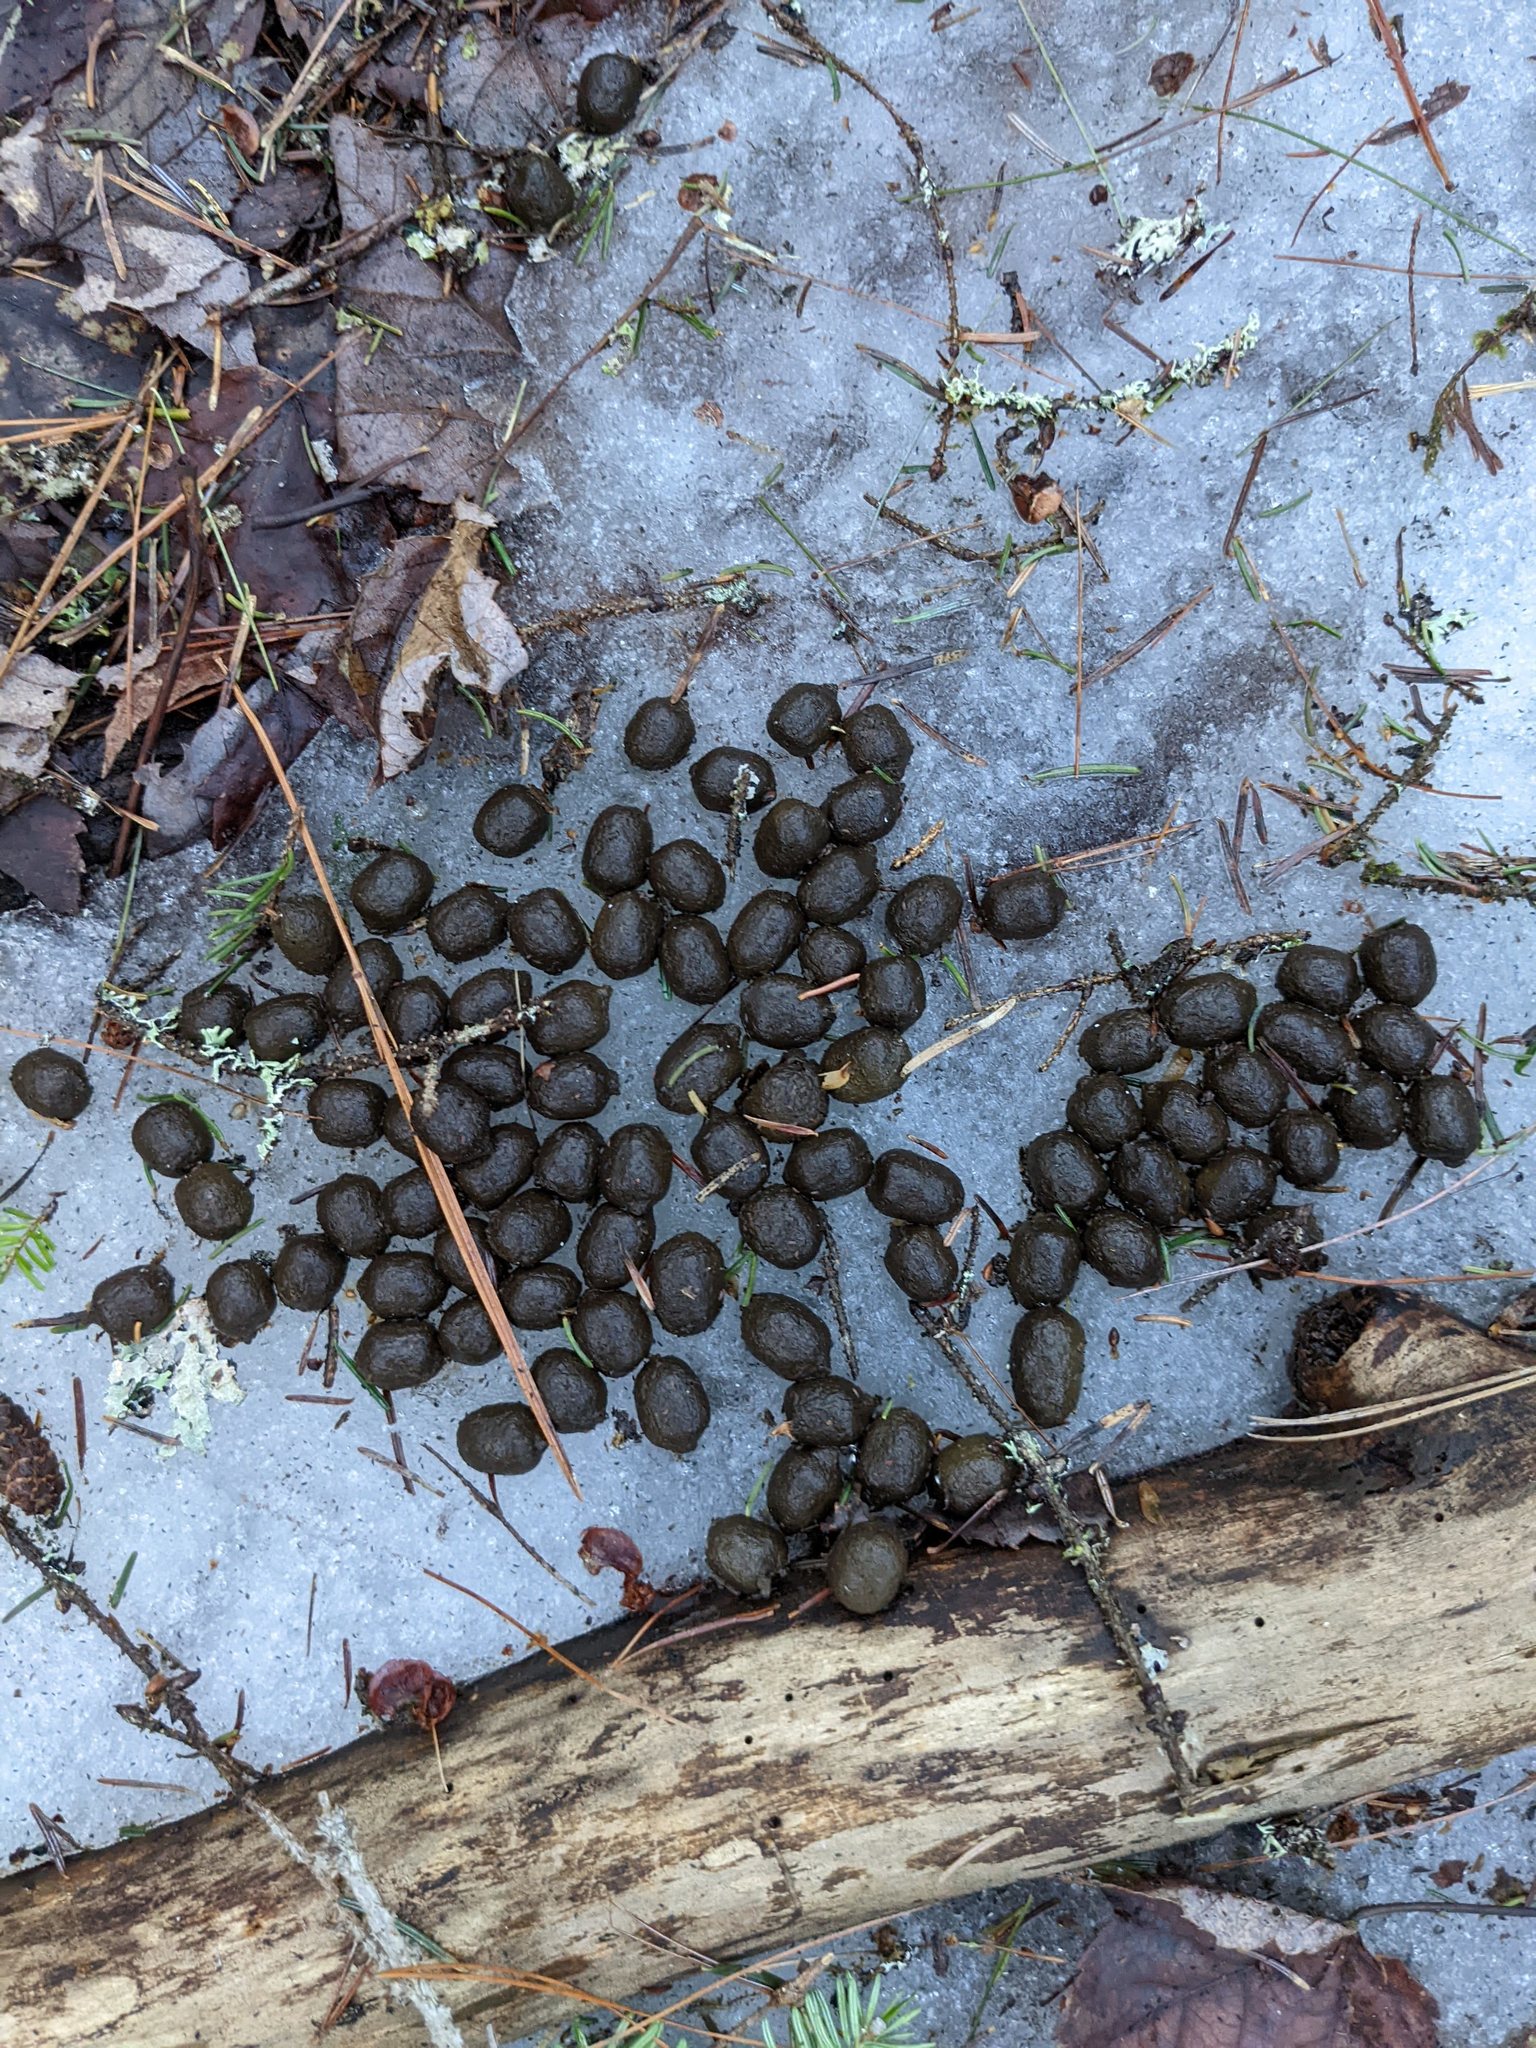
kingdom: Animalia
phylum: Chordata
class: Mammalia
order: Artiodactyla
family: Cervidae
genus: Odocoileus
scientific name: Odocoileus virginianus
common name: White-tailed deer
